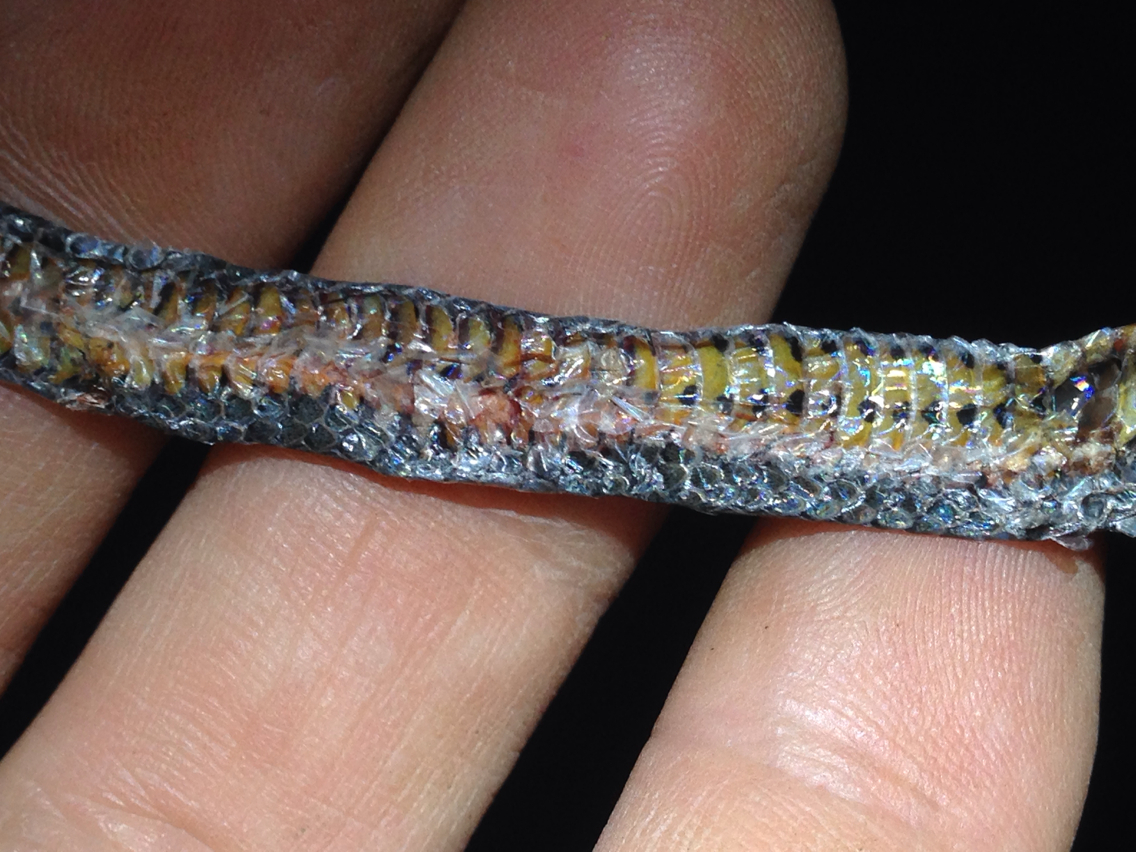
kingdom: Animalia
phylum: Chordata
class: Squamata
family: Colubridae
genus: Diadophis
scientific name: Diadophis punctatus
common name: Ringneck snake
